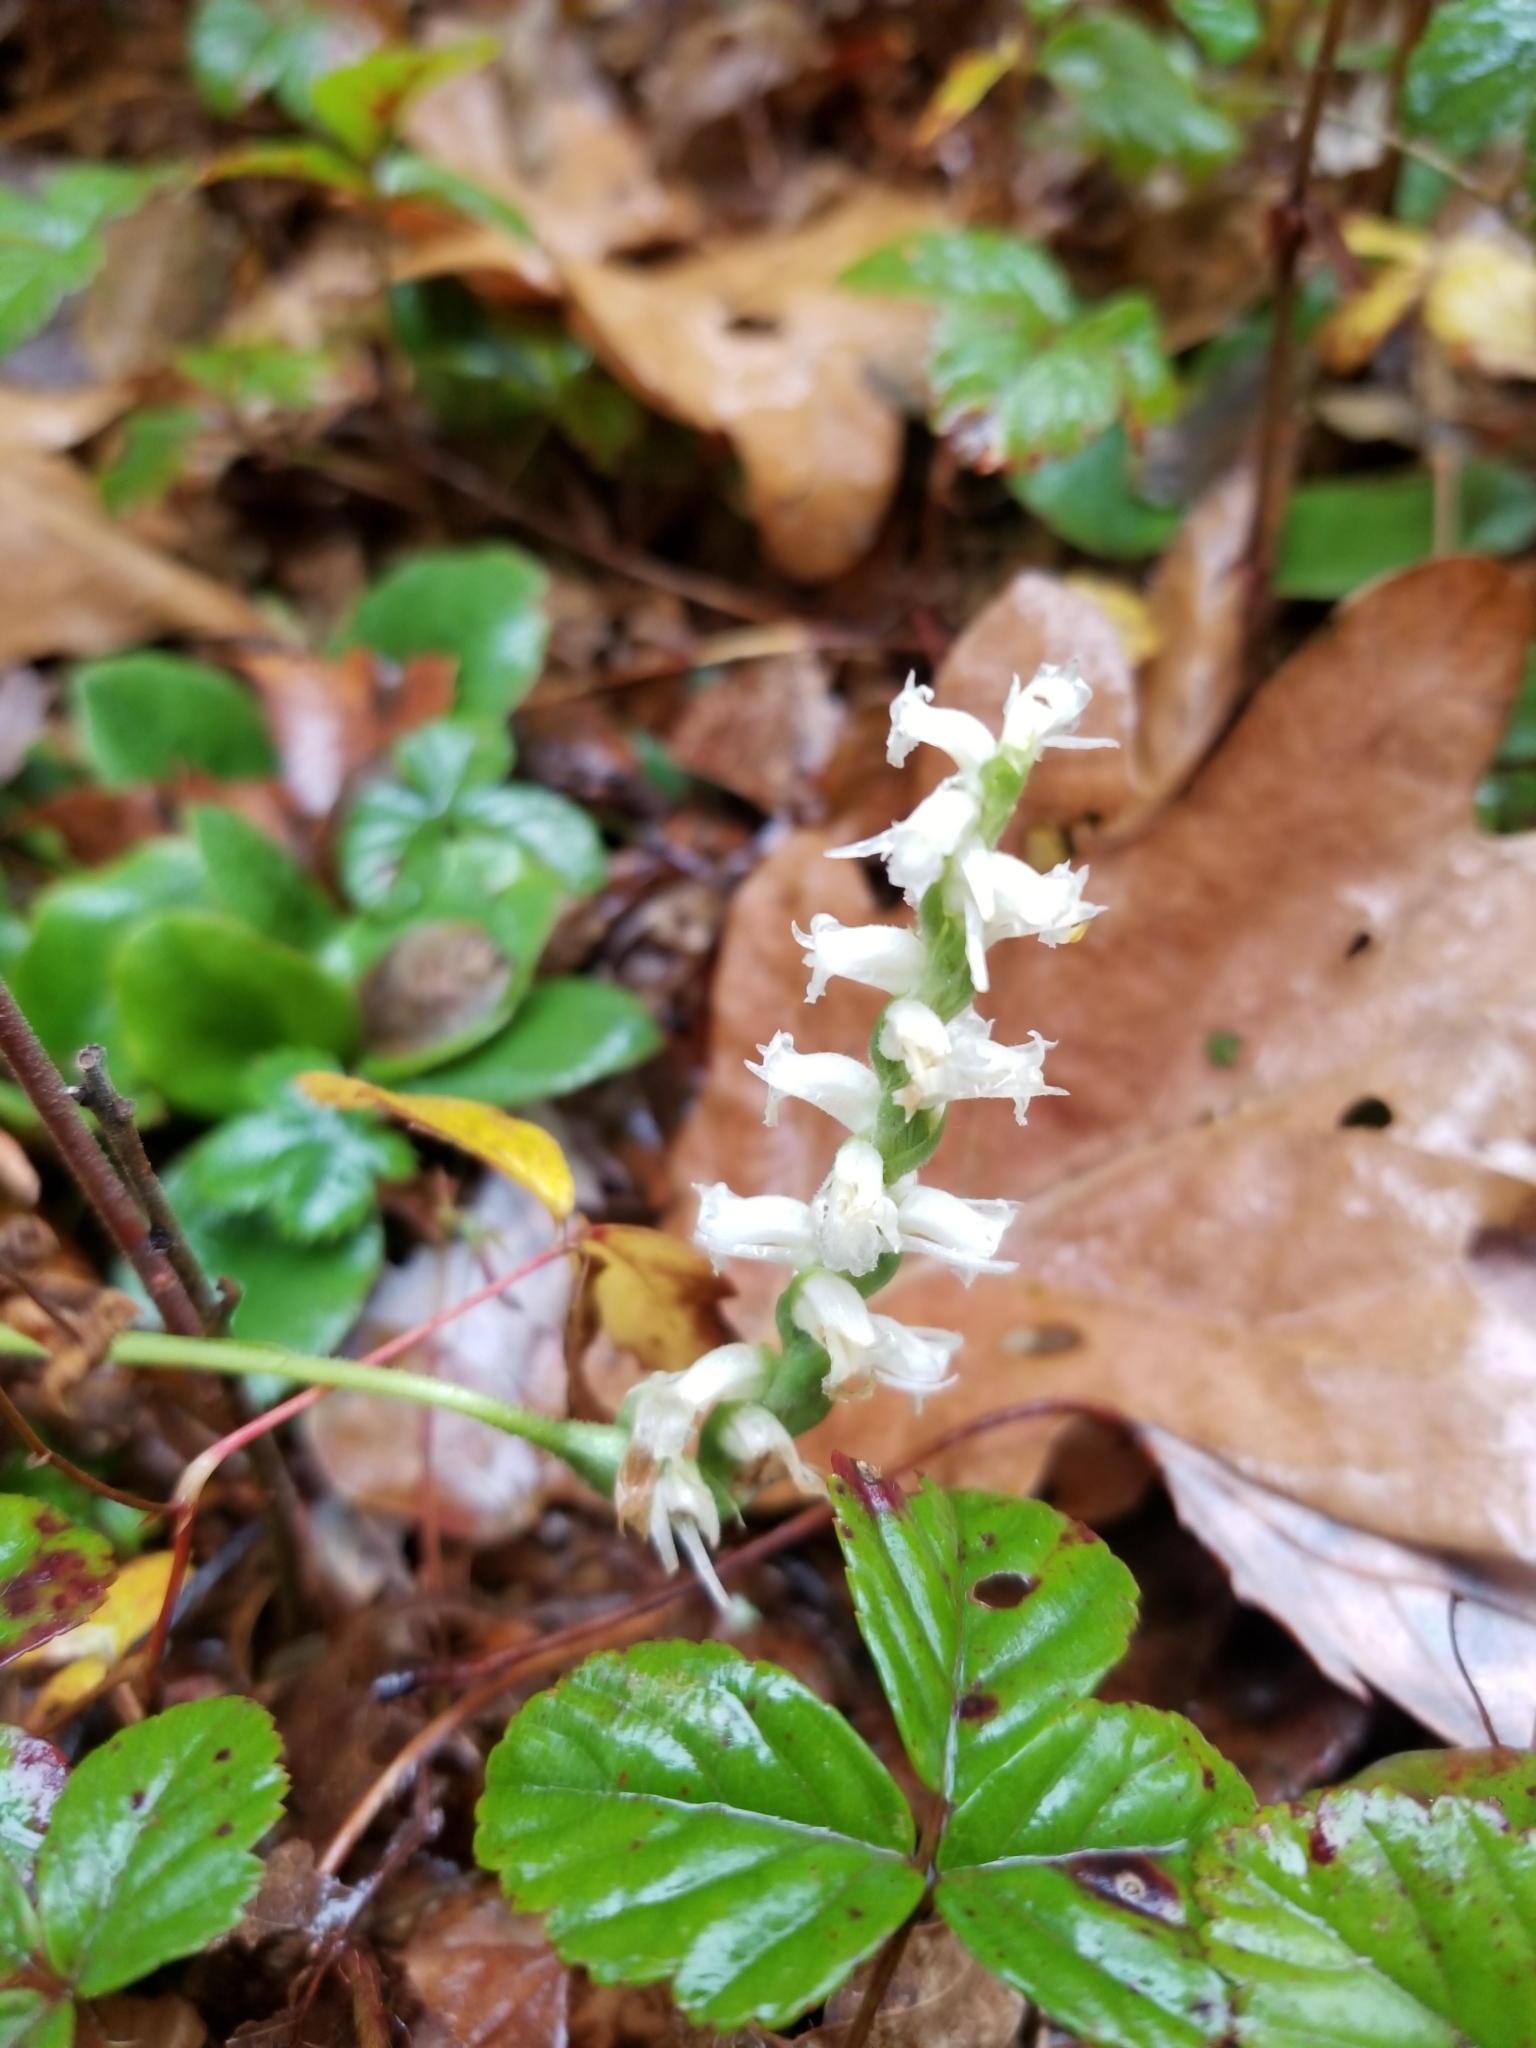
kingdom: Plantae
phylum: Tracheophyta
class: Liliopsida
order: Asparagales
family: Orchidaceae
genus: Spiranthes
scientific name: Spiranthes ochroleuca
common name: Yellow ladies'-tresses
